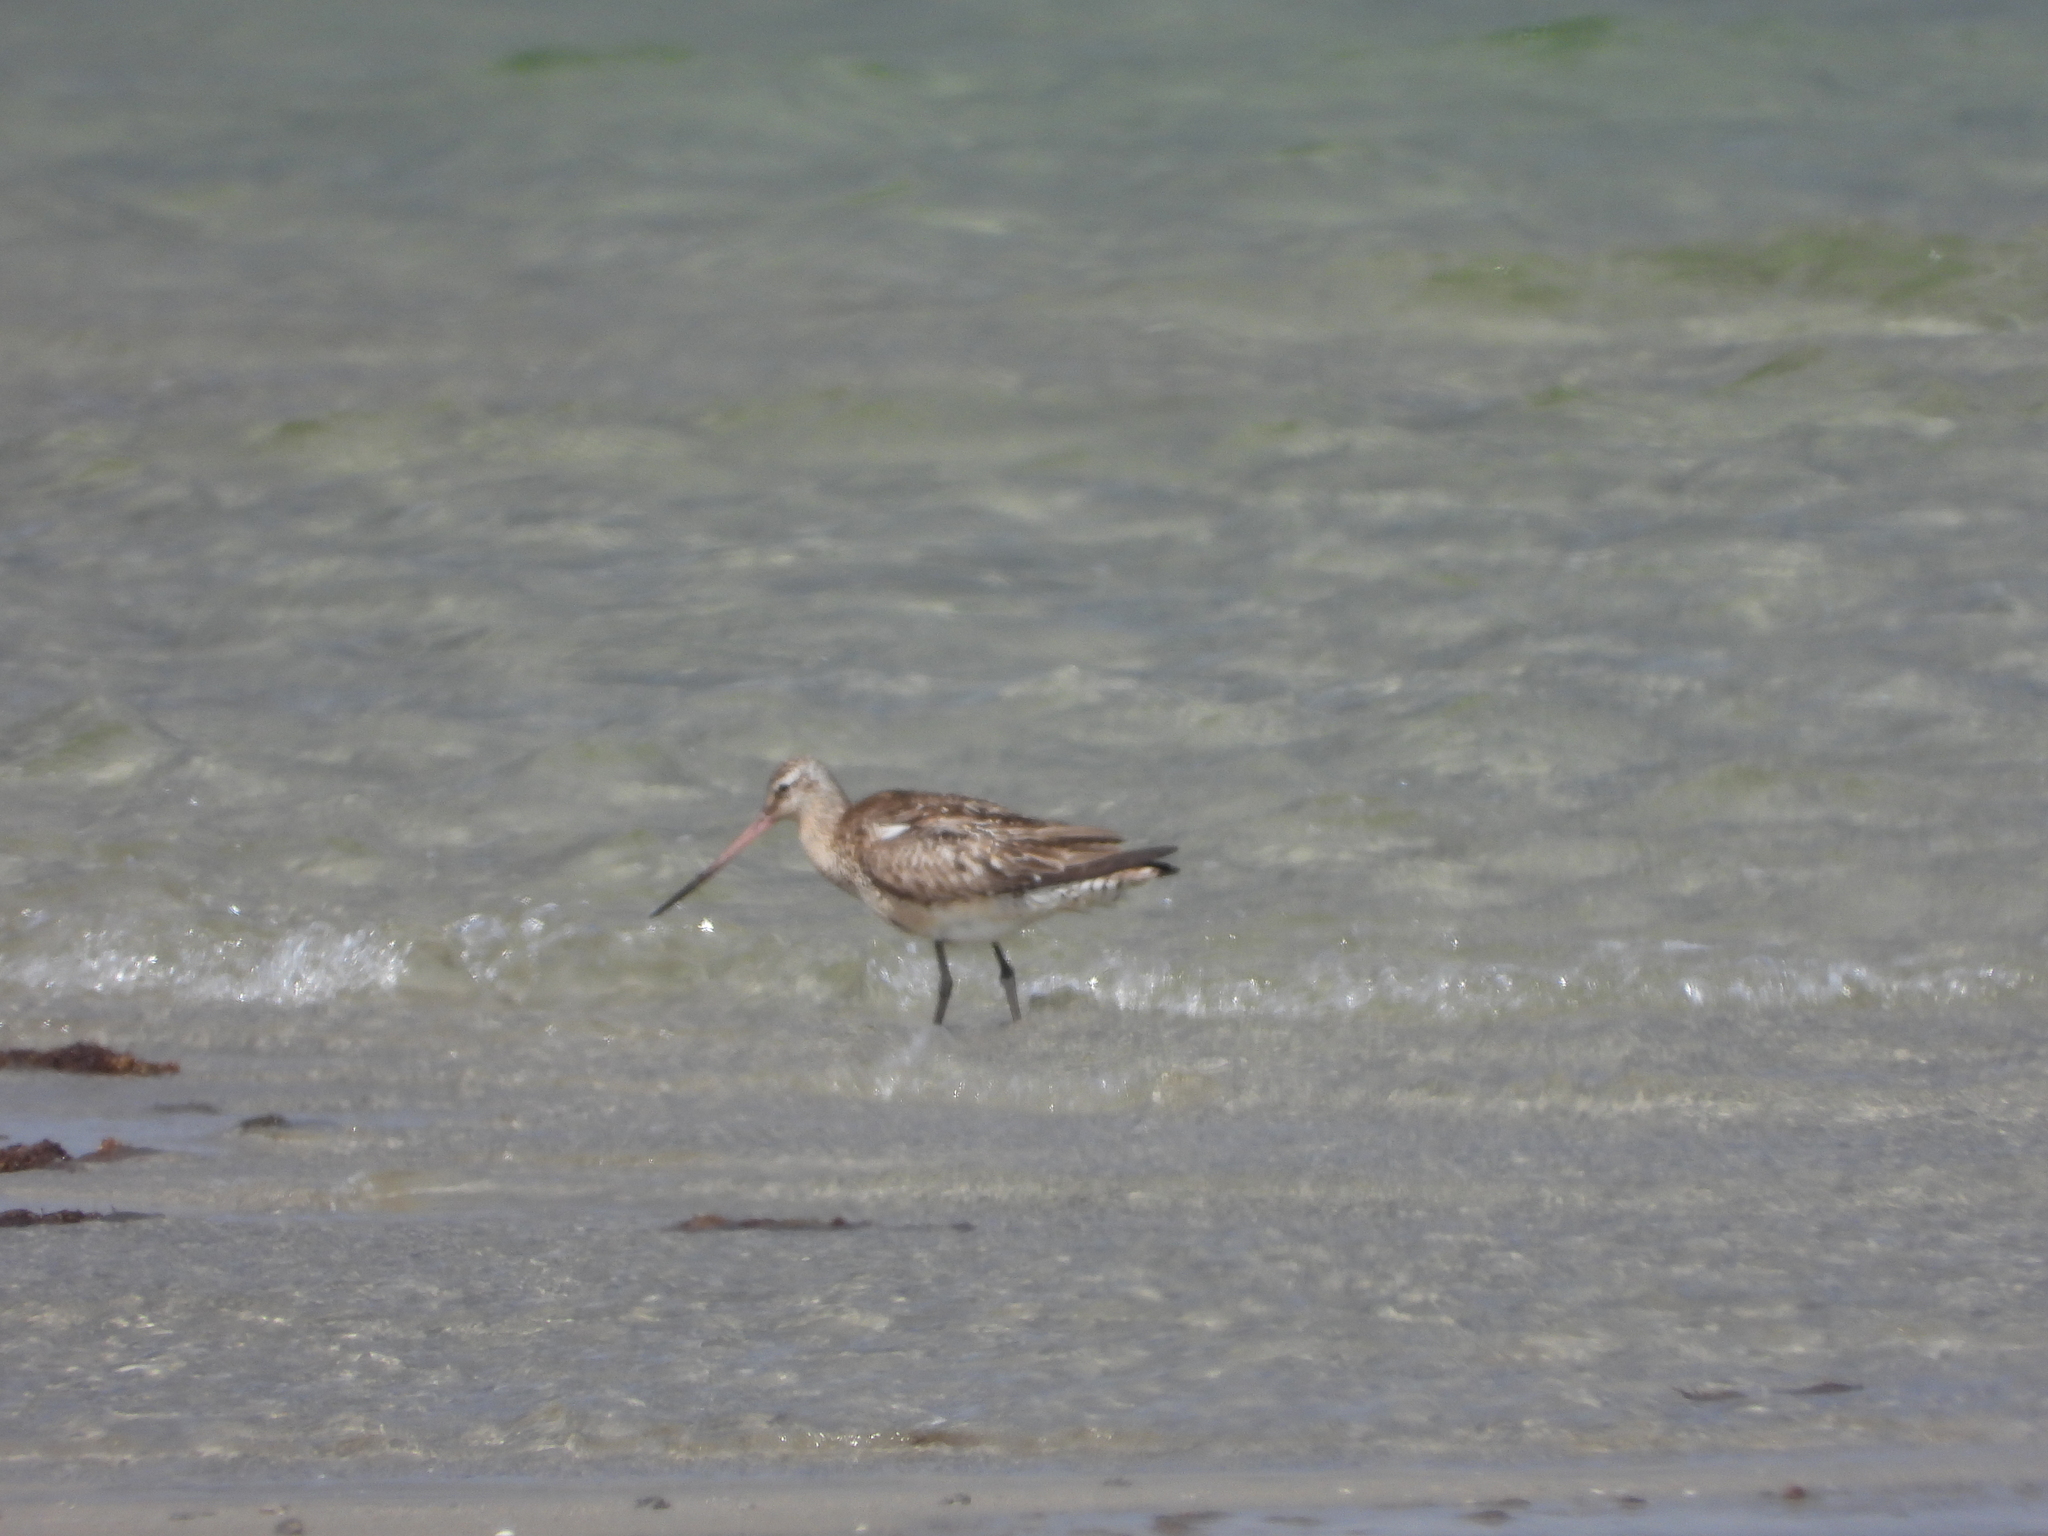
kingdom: Animalia
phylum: Chordata
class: Aves
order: Charadriiformes
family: Scolopacidae
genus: Limosa
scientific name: Limosa lapponica
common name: Bar-tailed godwit
